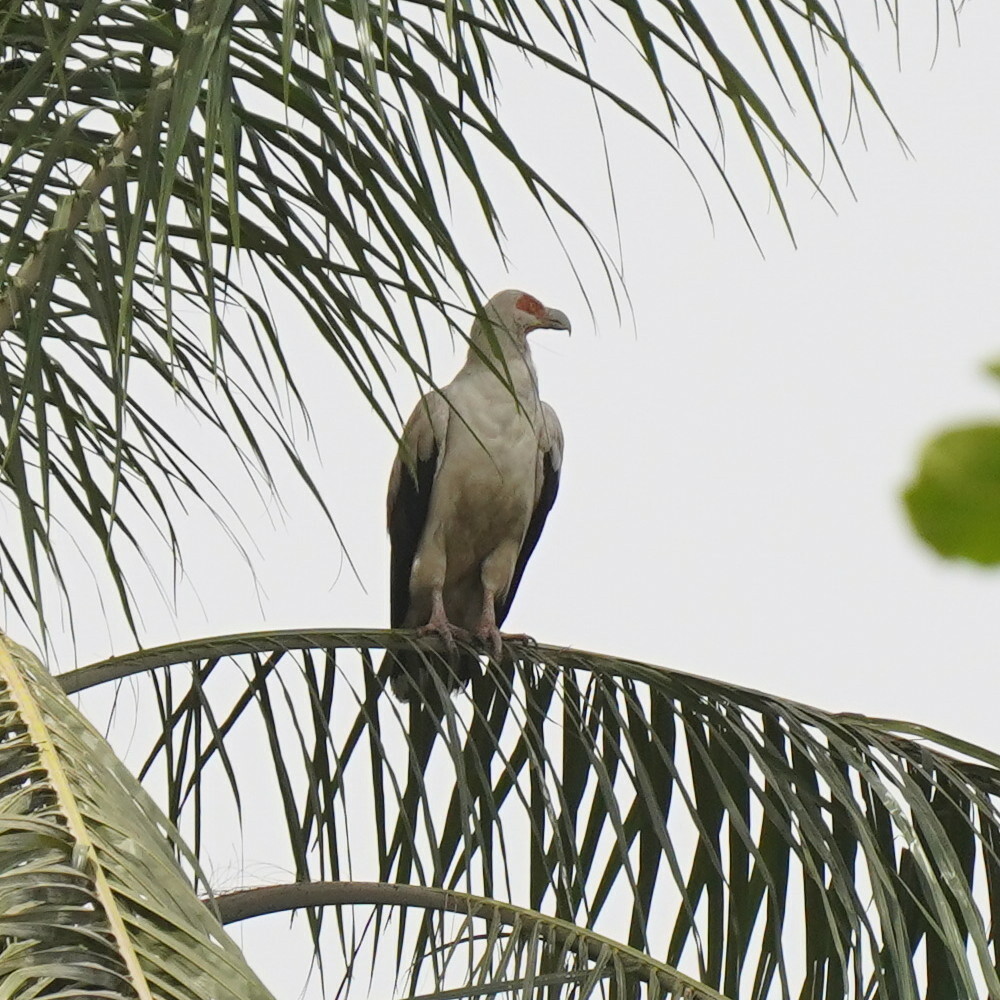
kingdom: Animalia
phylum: Chordata
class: Aves
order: Accipitriformes
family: Accipitridae
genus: Gypohierax
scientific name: Gypohierax angolensis
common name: Palm-nut vulture
